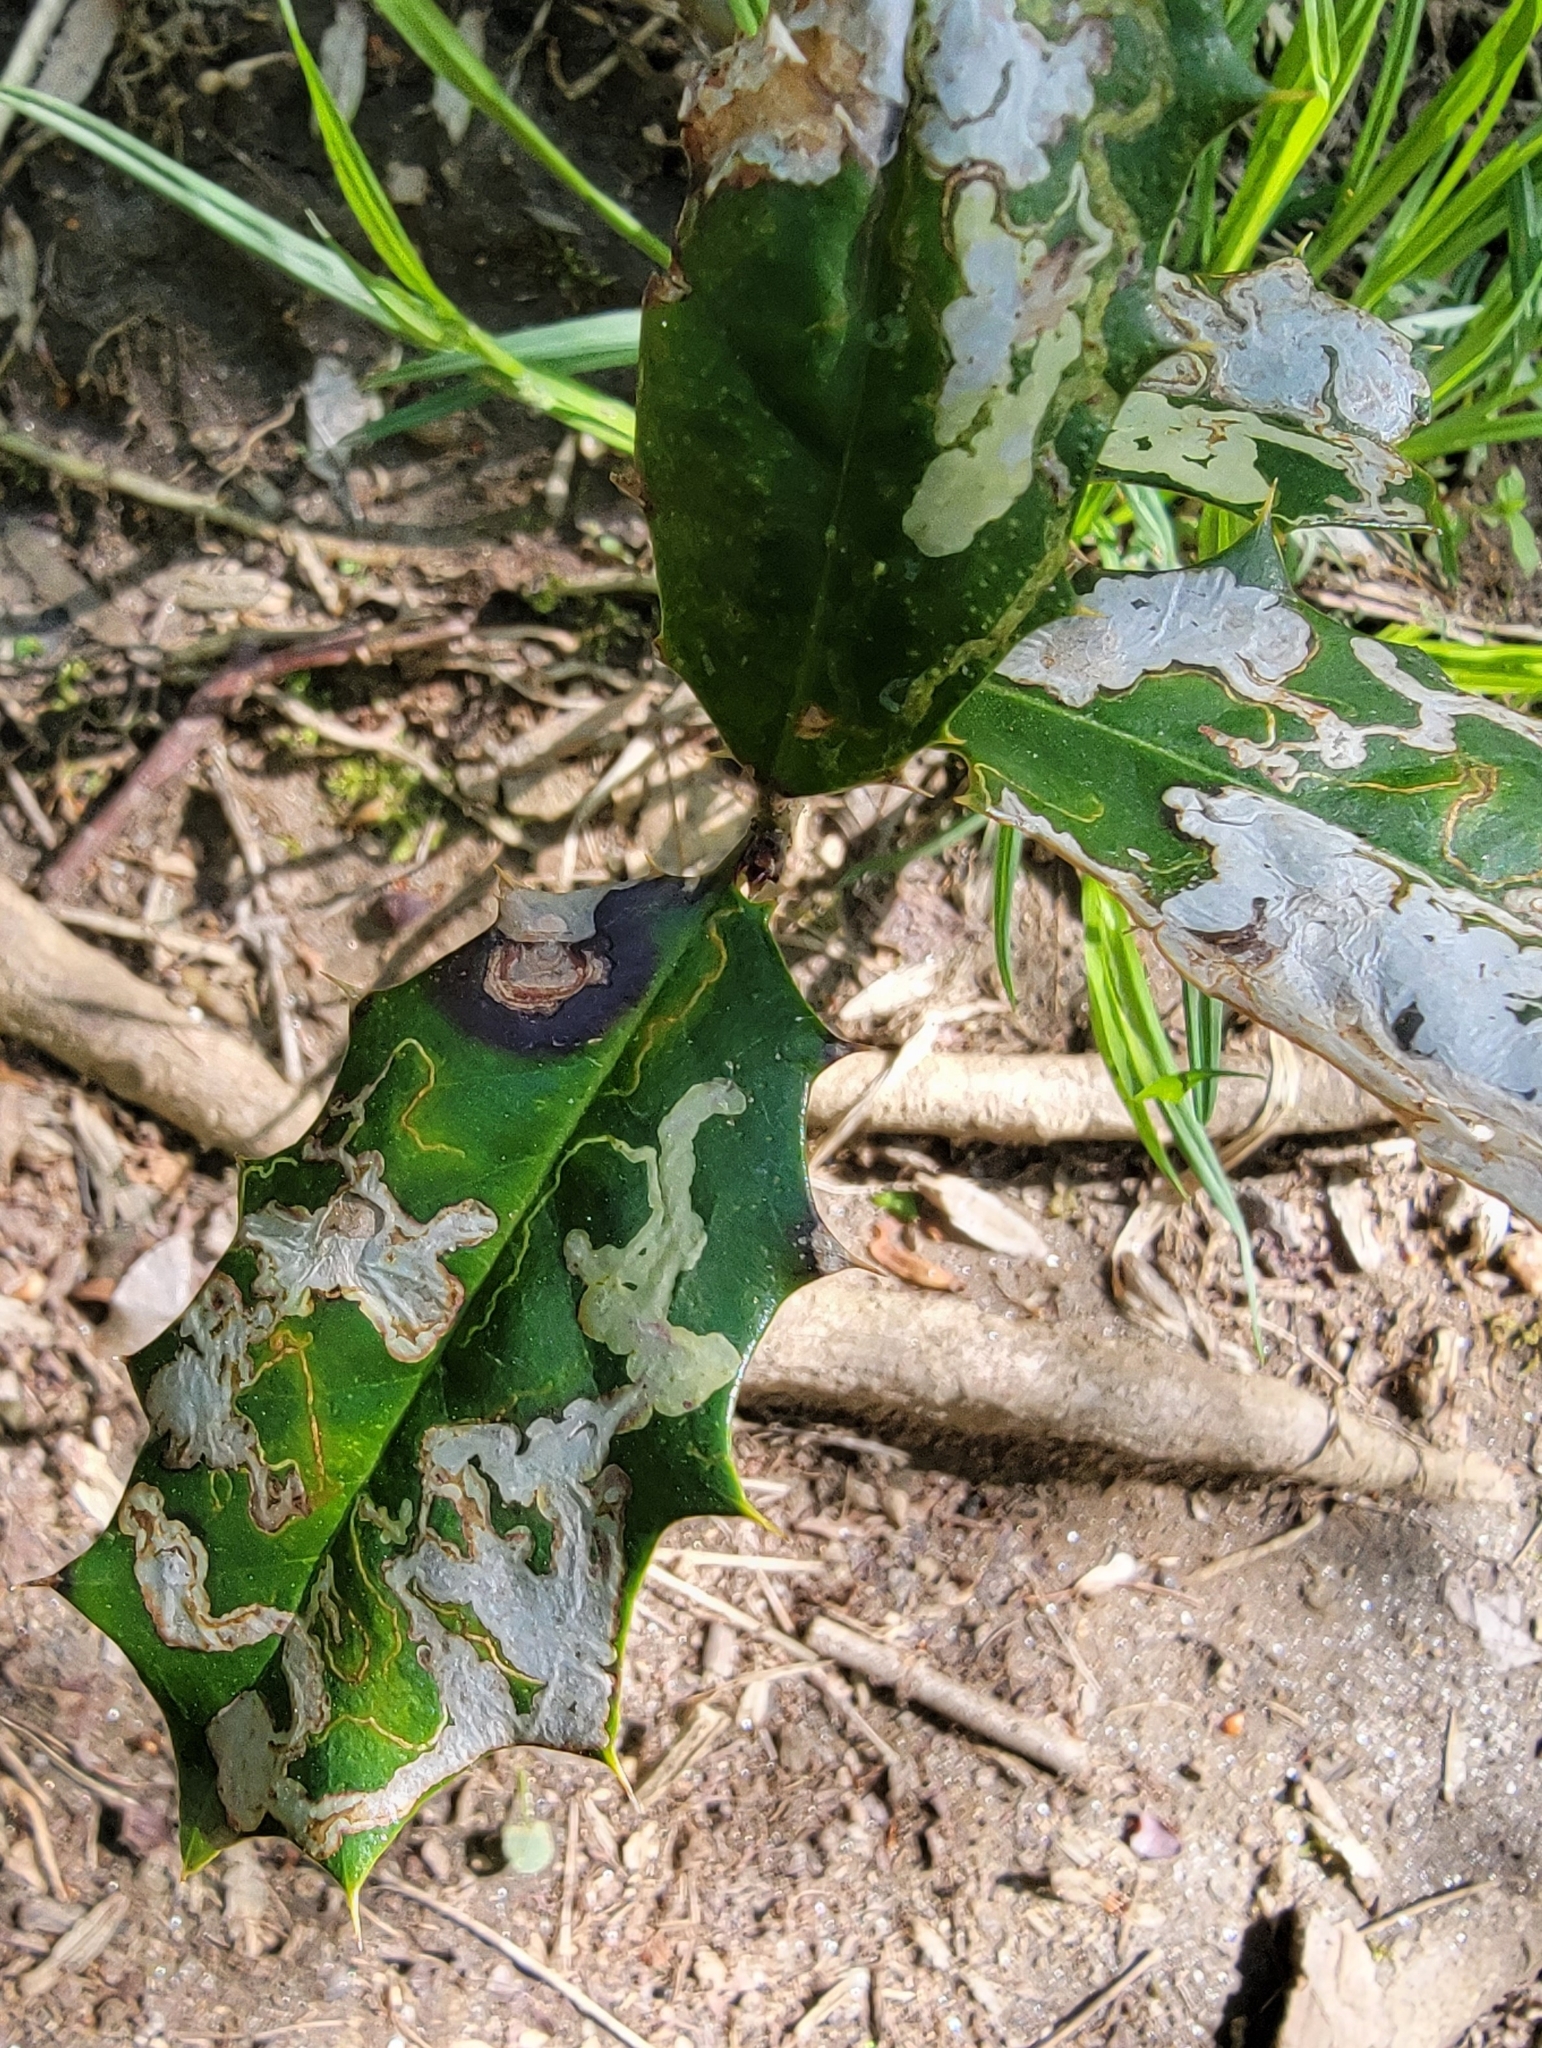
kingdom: Animalia
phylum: Arthropoda
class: Insecta
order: Diptera
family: Agromyzidae
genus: Phytomyza
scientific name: Phytomyza ilicicola
